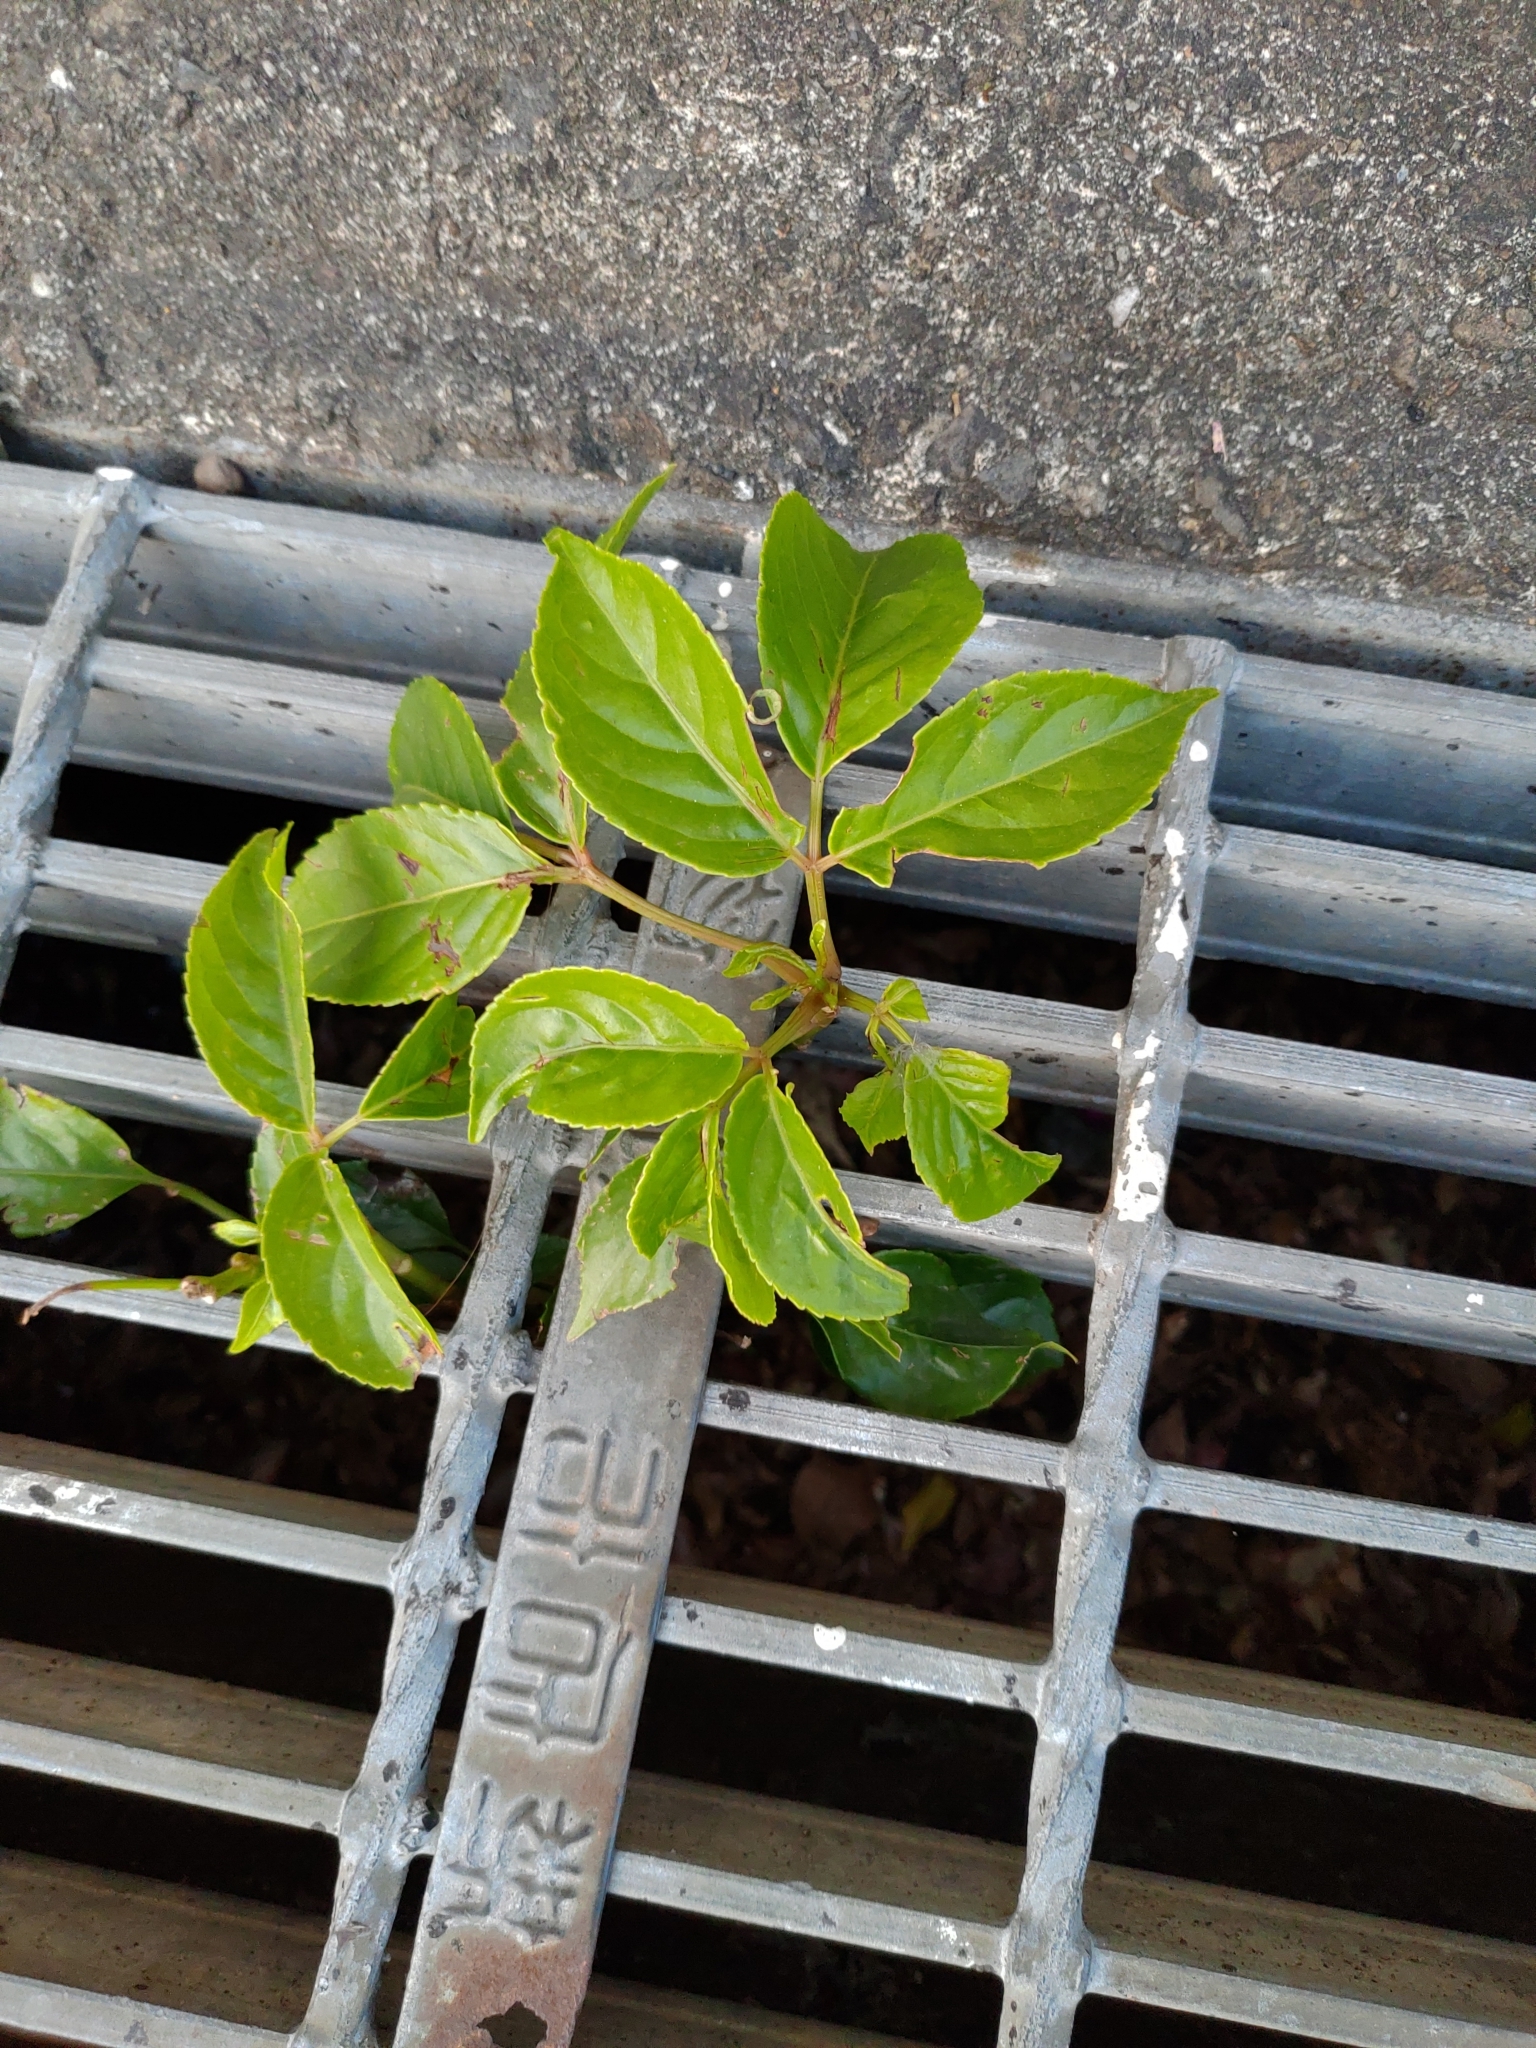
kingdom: Plantae
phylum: Tracheophyta
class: Magnoliopsida
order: Malpighiales
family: Phyllanthaceae
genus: Bischofia
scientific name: Bischofia javanica
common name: Javanese bishopwood
